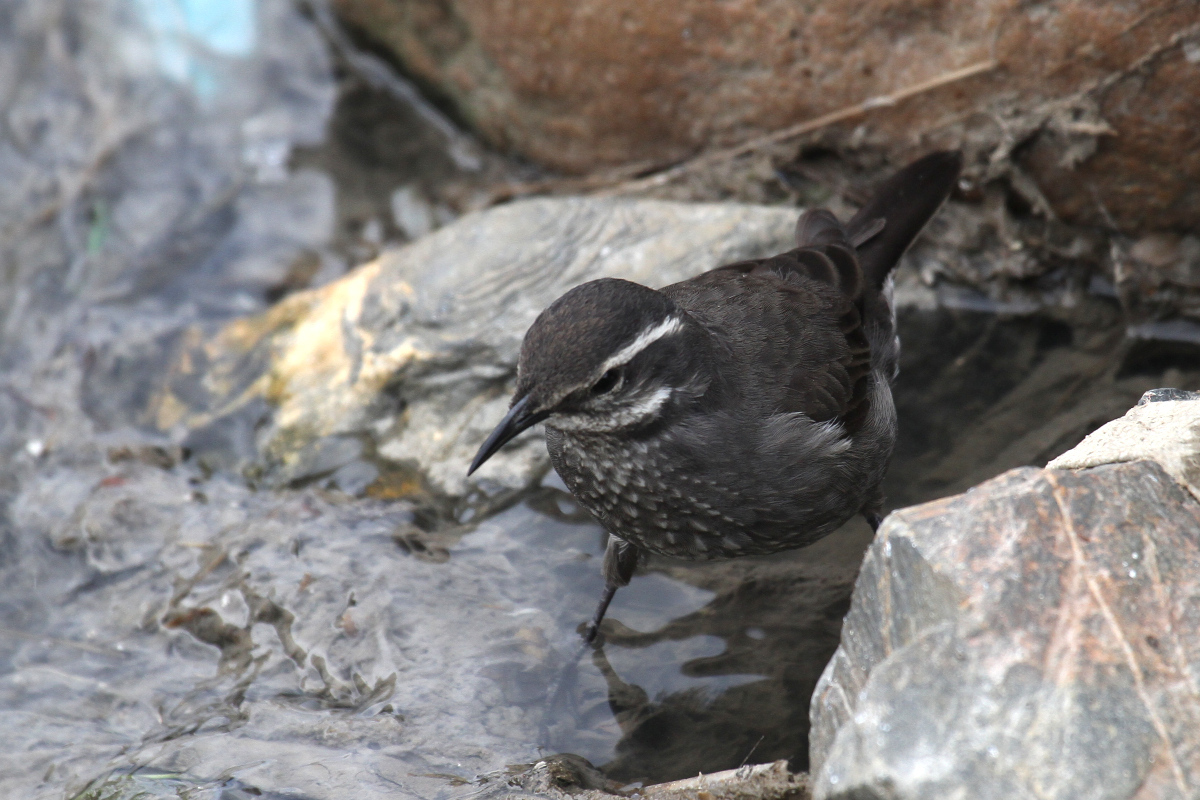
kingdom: Animalia
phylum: Chordata
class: Aves
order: Passeriformes
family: Furnariidae
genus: Cinclodes
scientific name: Cinclodes patagonicus
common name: Dark-bellied cinclodes
